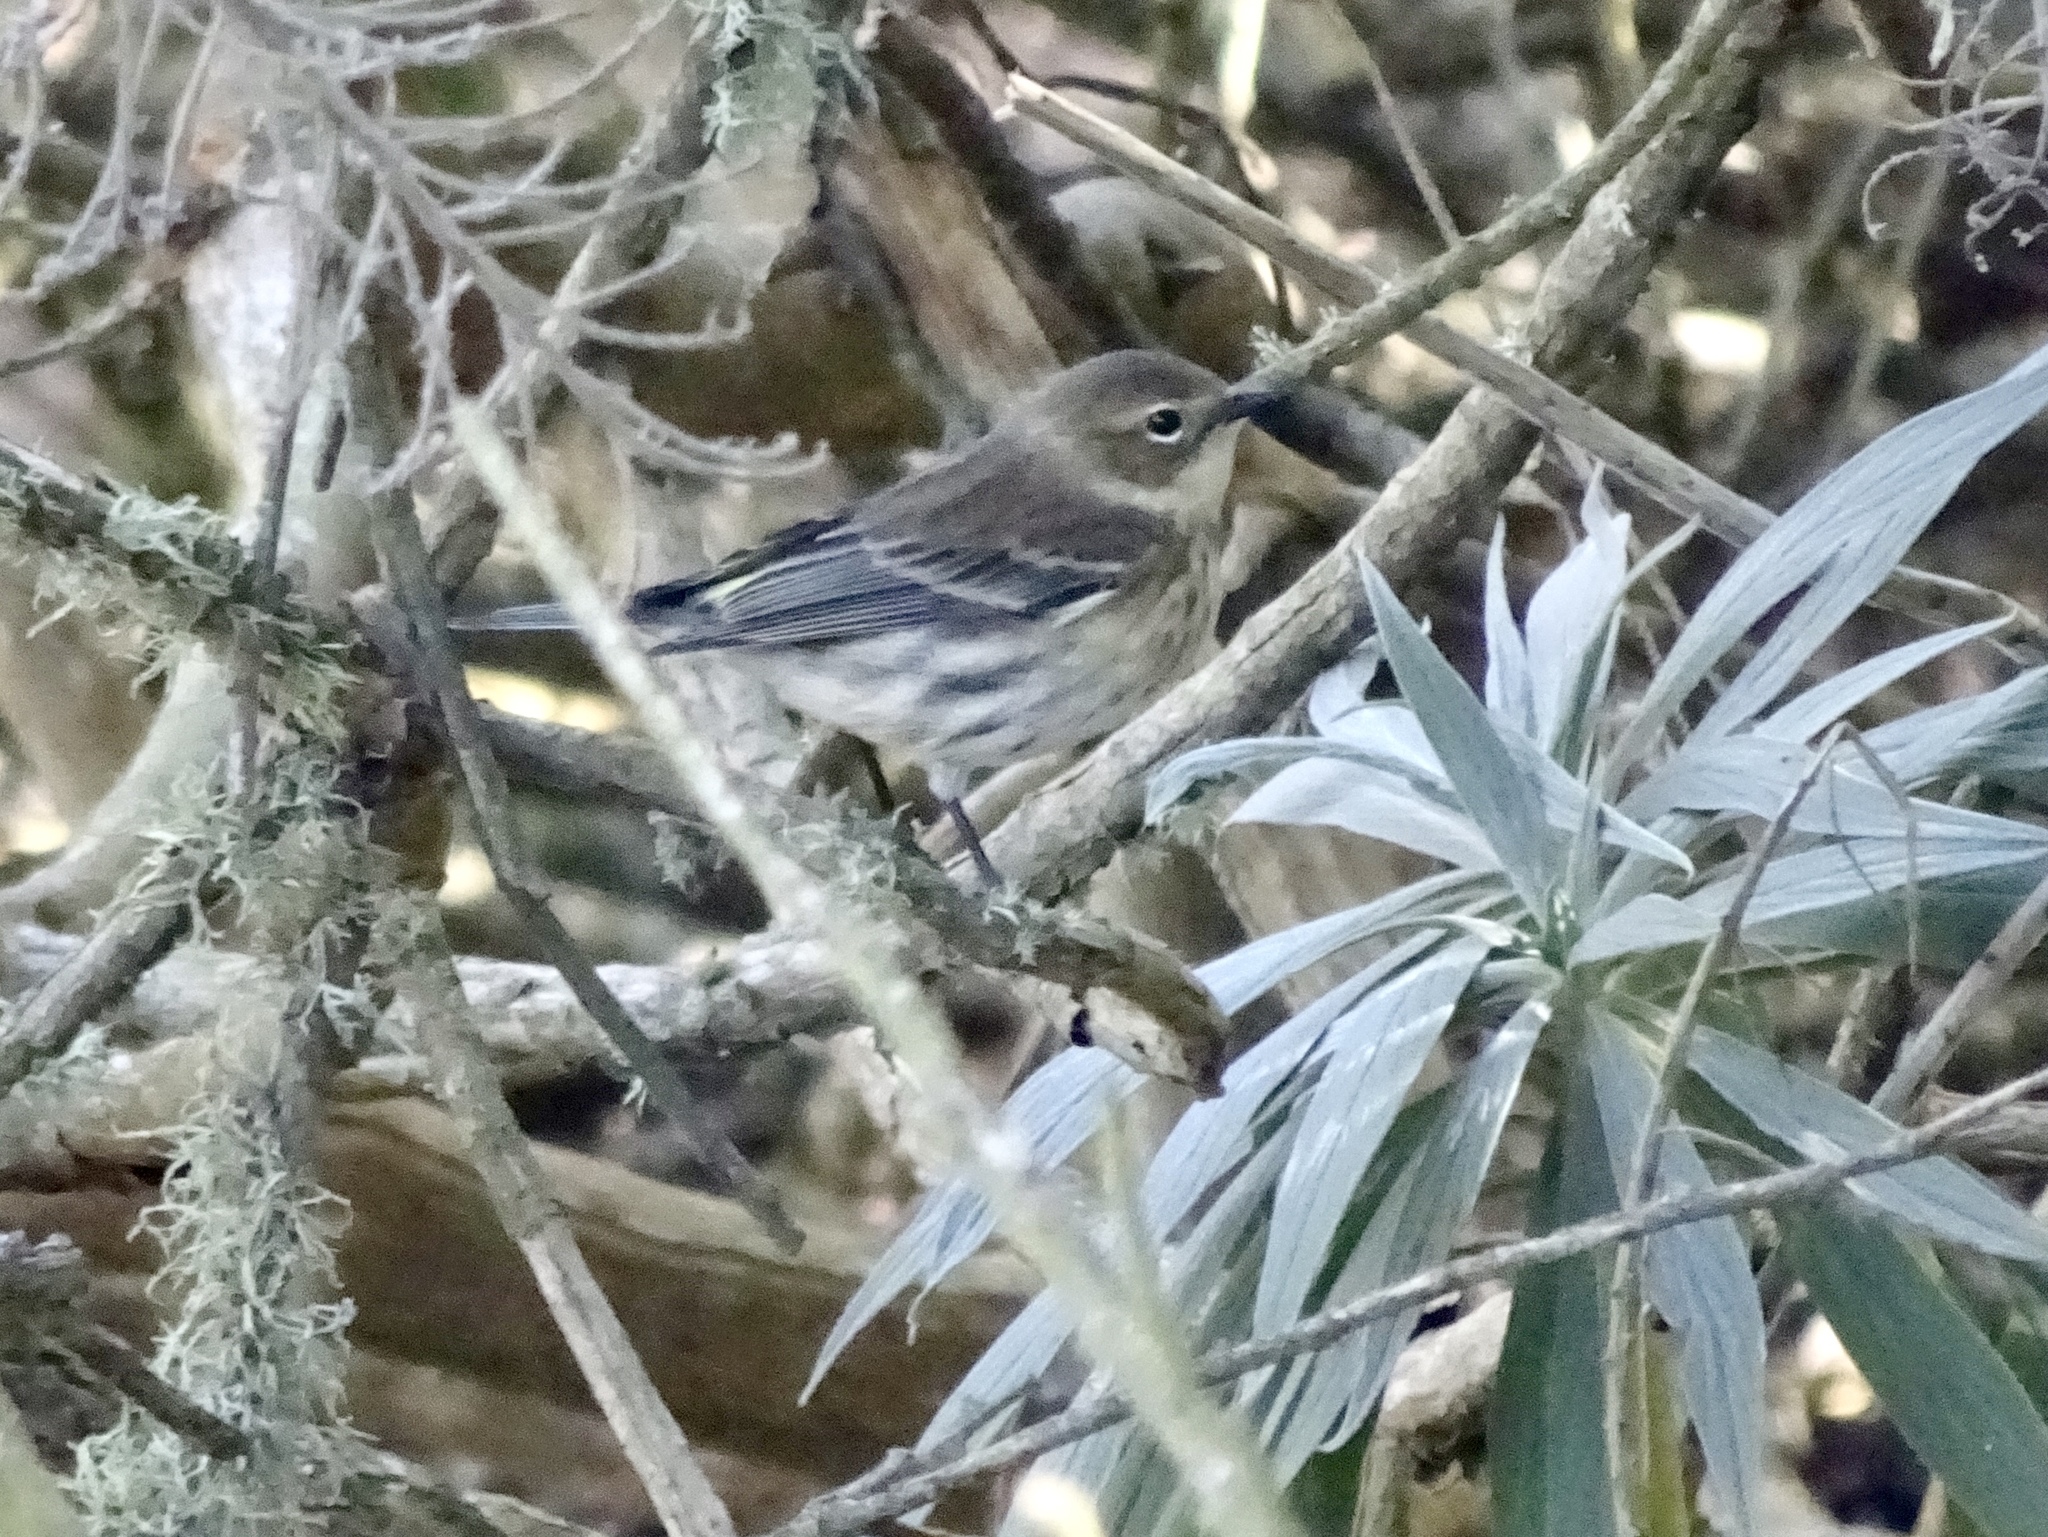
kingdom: Animalia
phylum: Chordata
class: Aves
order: Passeriformes
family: Parulidae
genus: Setophaga
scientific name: Setophaga coronata
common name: Myrtle warbler
